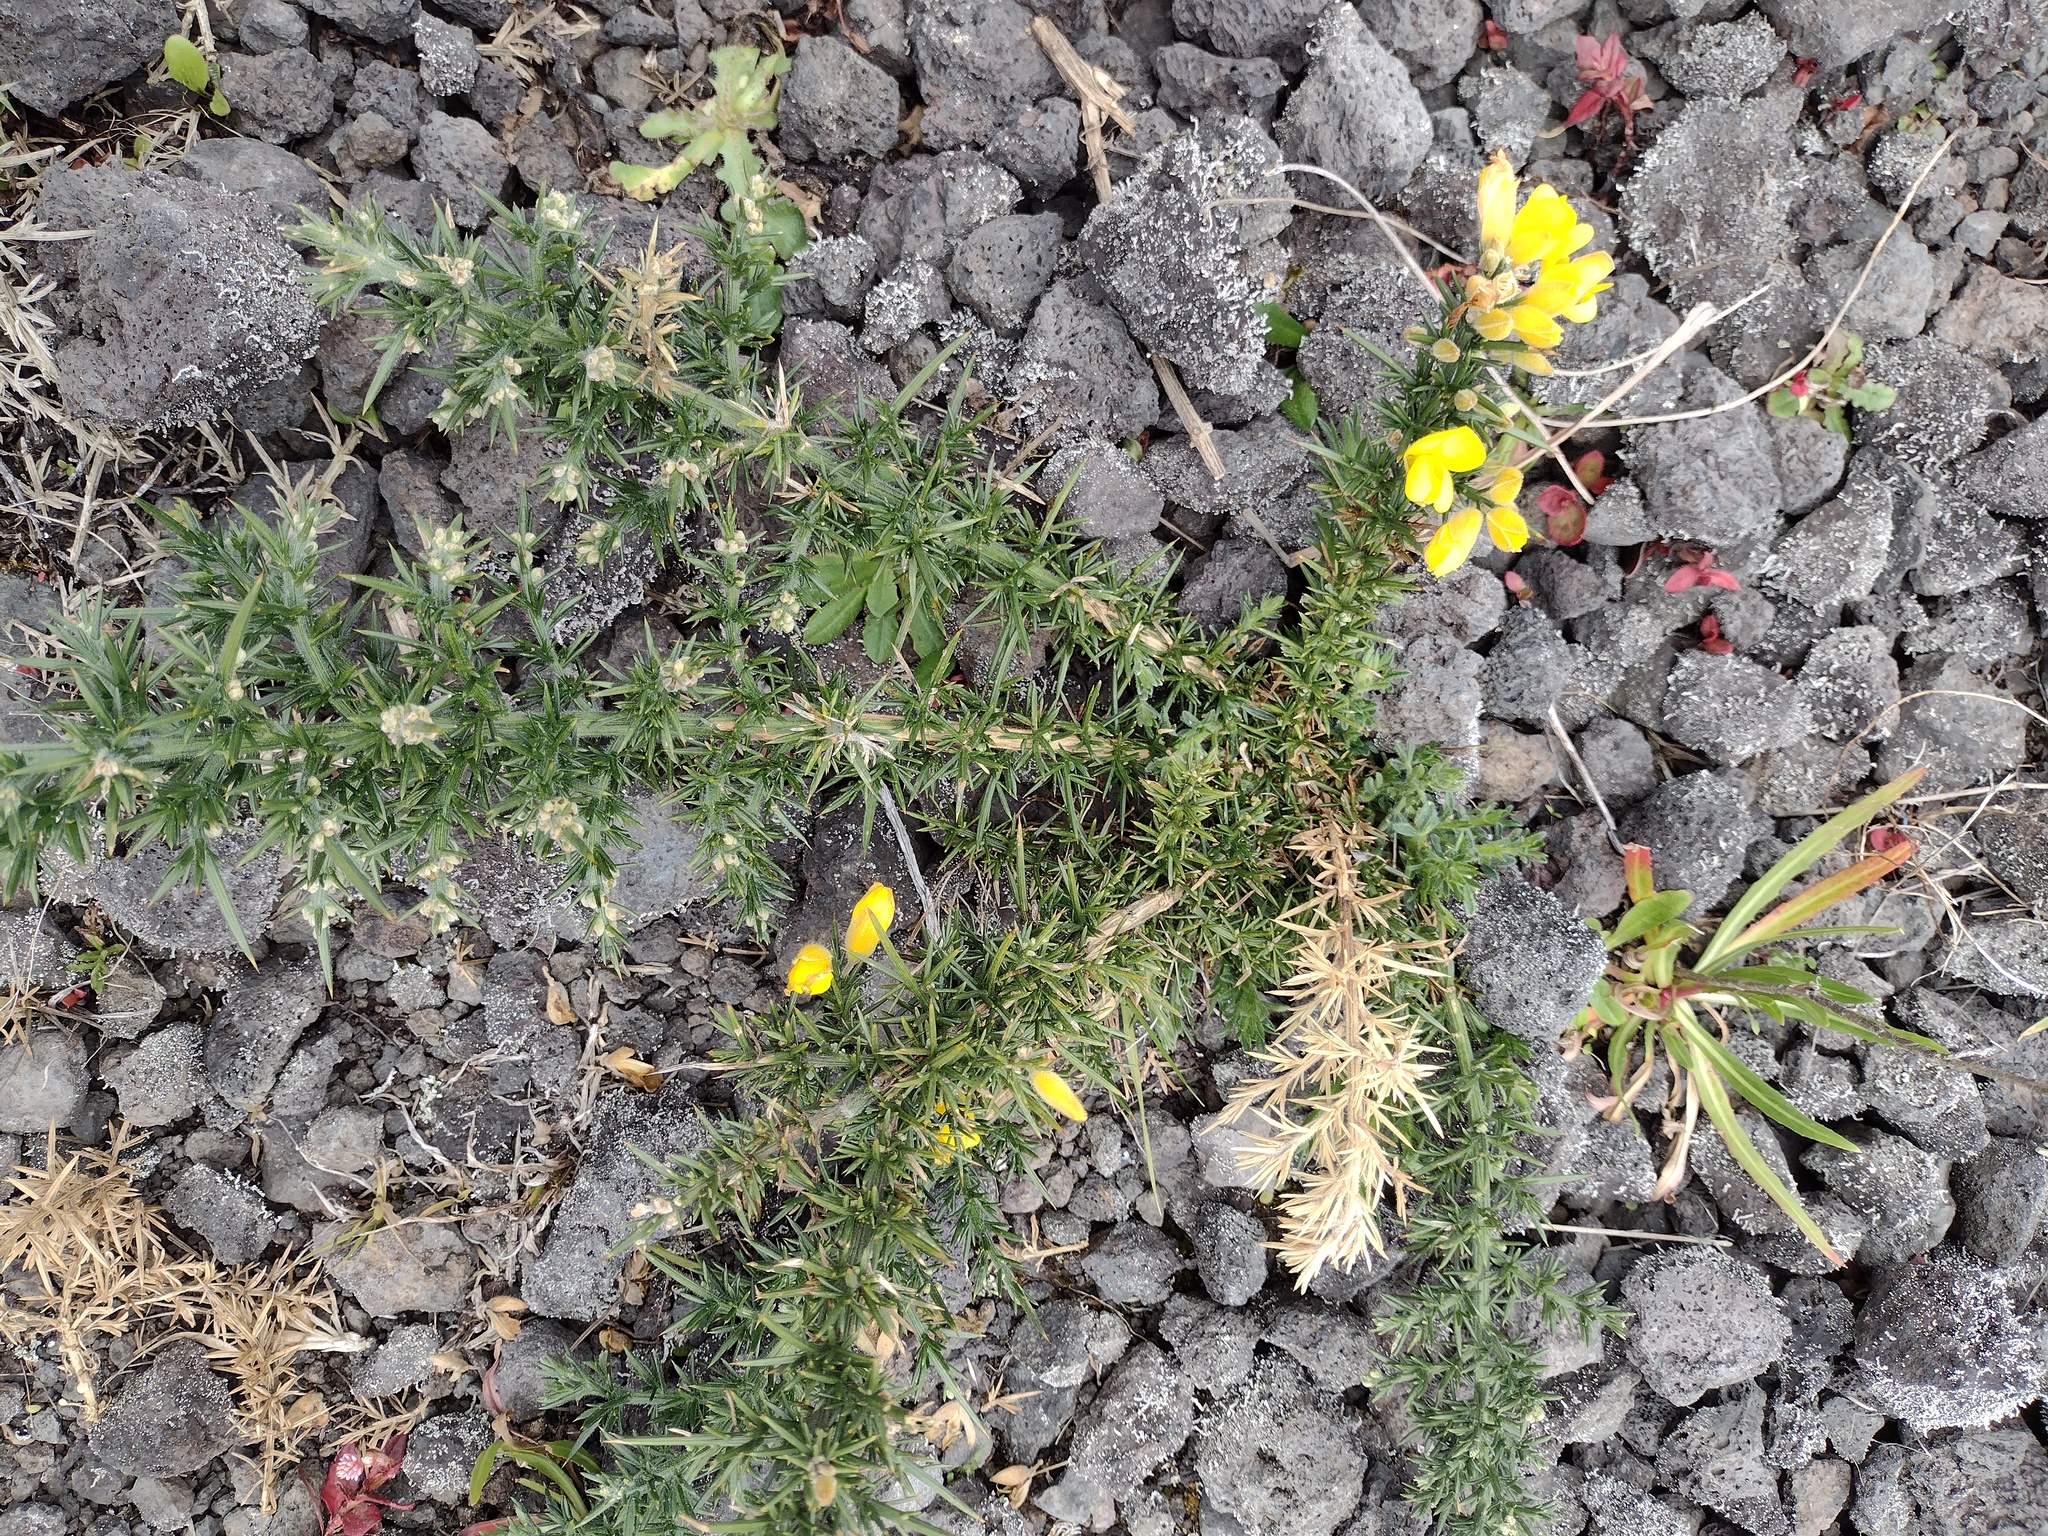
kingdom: Plantae
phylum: Tracheophyta
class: Magnoliopsida
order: Fabales
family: Fabaceae
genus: Ulex
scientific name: Ulex europaeus
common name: Common gorse
